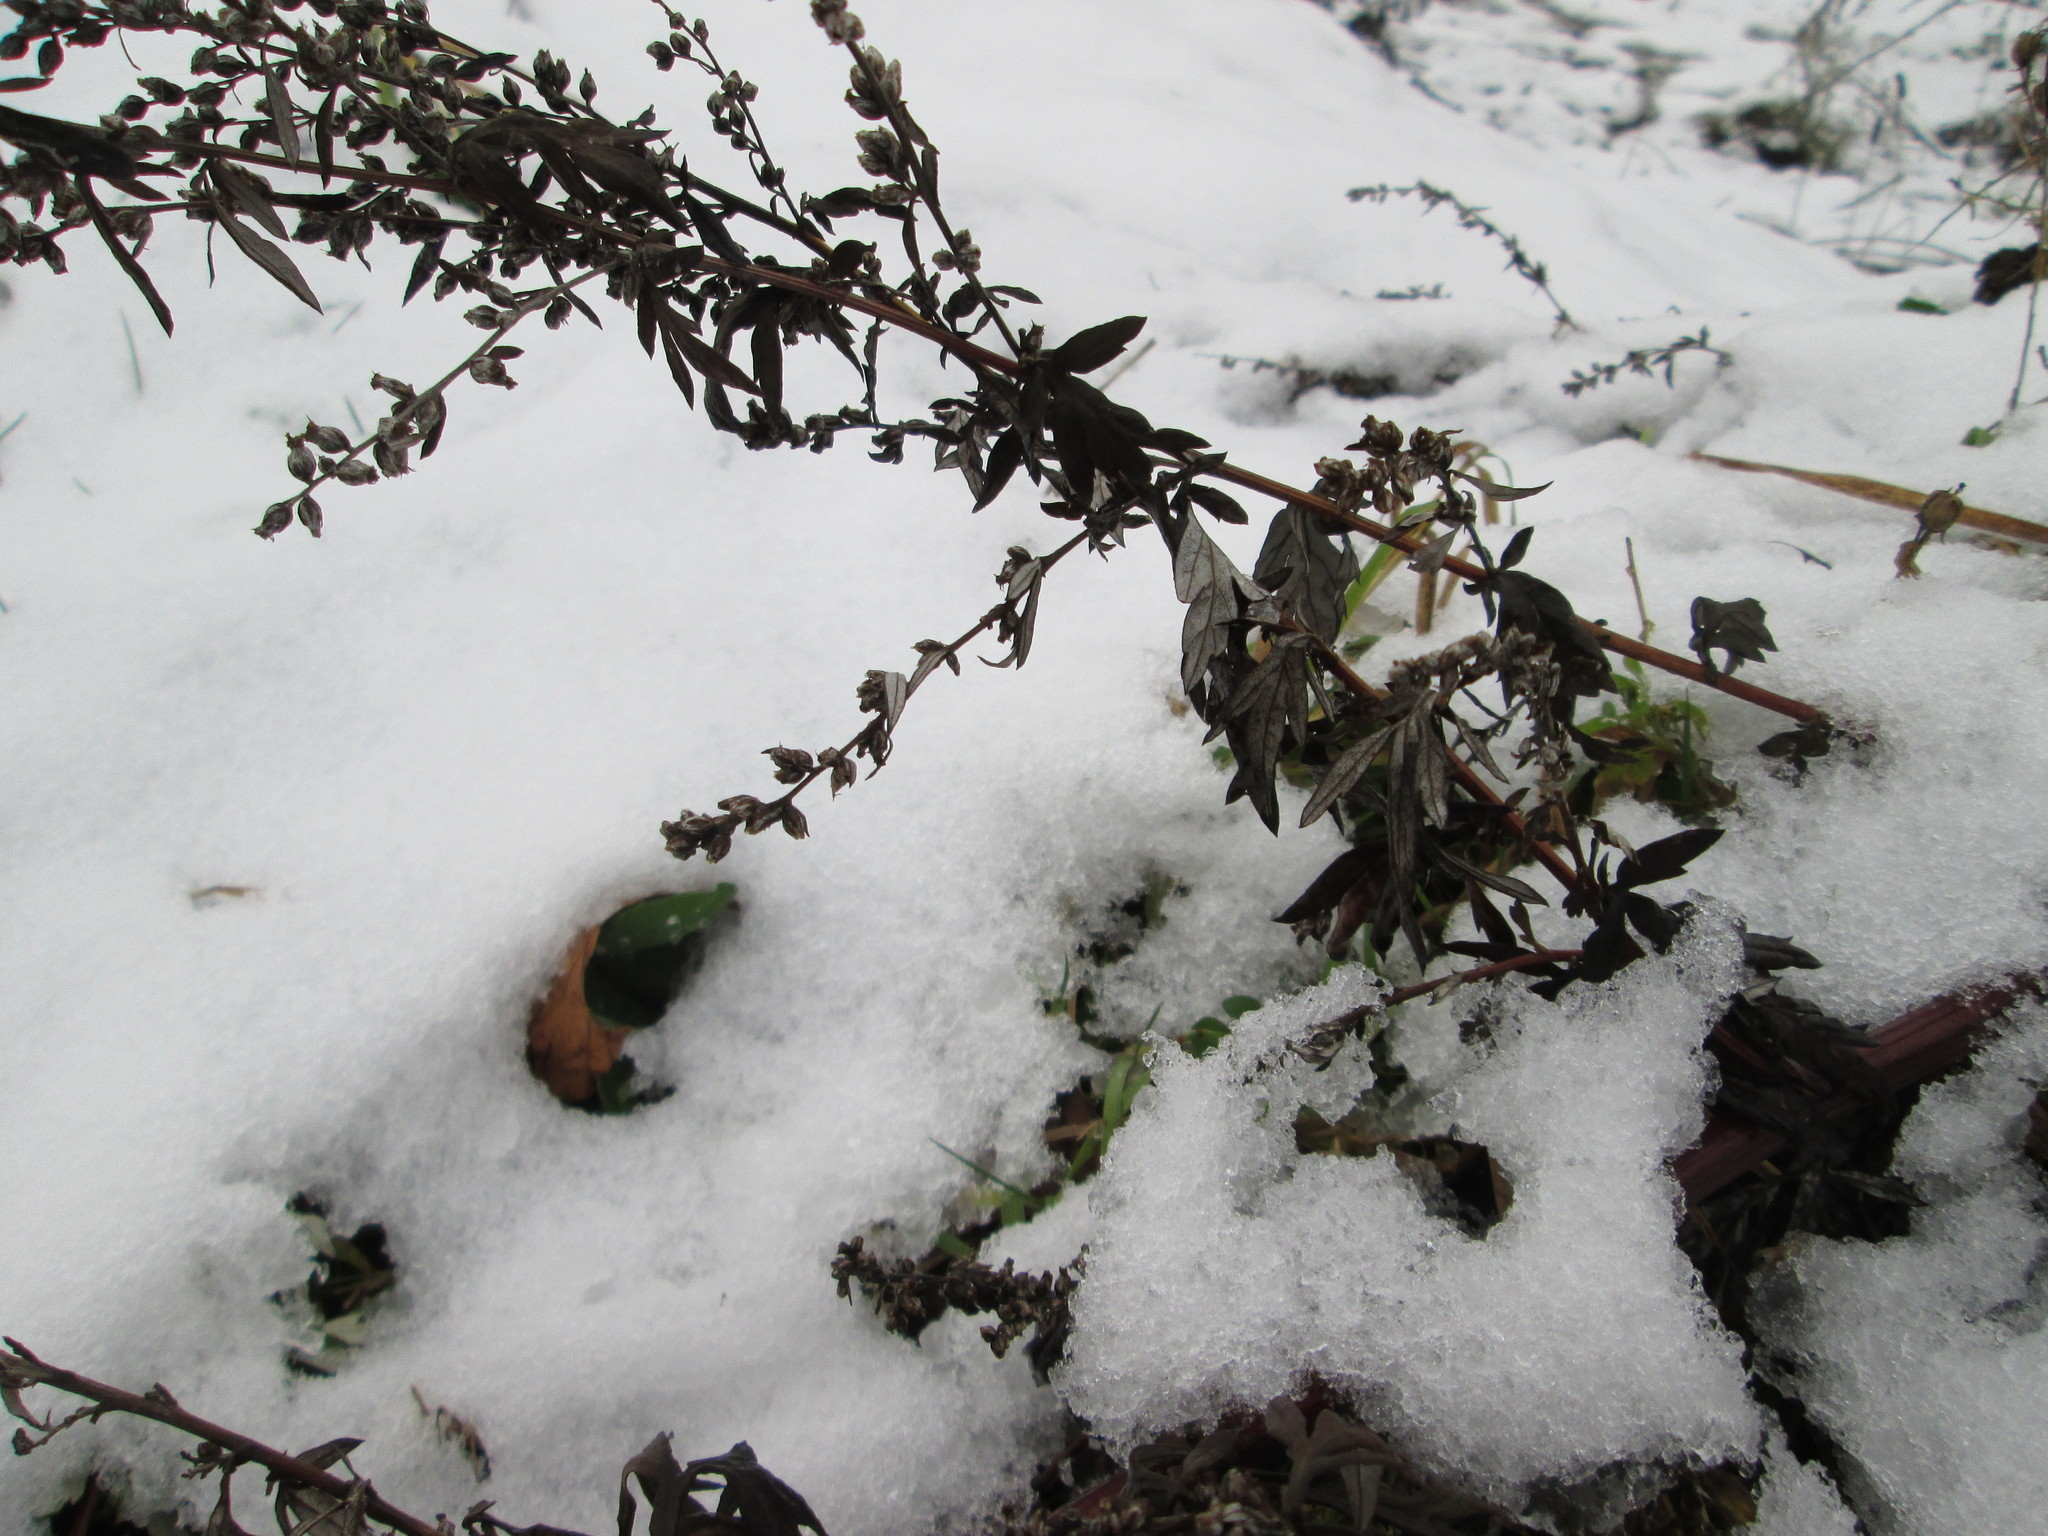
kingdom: Plantae
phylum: Tracheophyta
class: Magnoliopsida
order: Asterales
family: Asteraceae
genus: Artemisia
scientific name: Artemisia vulgaris
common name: Mugwort
